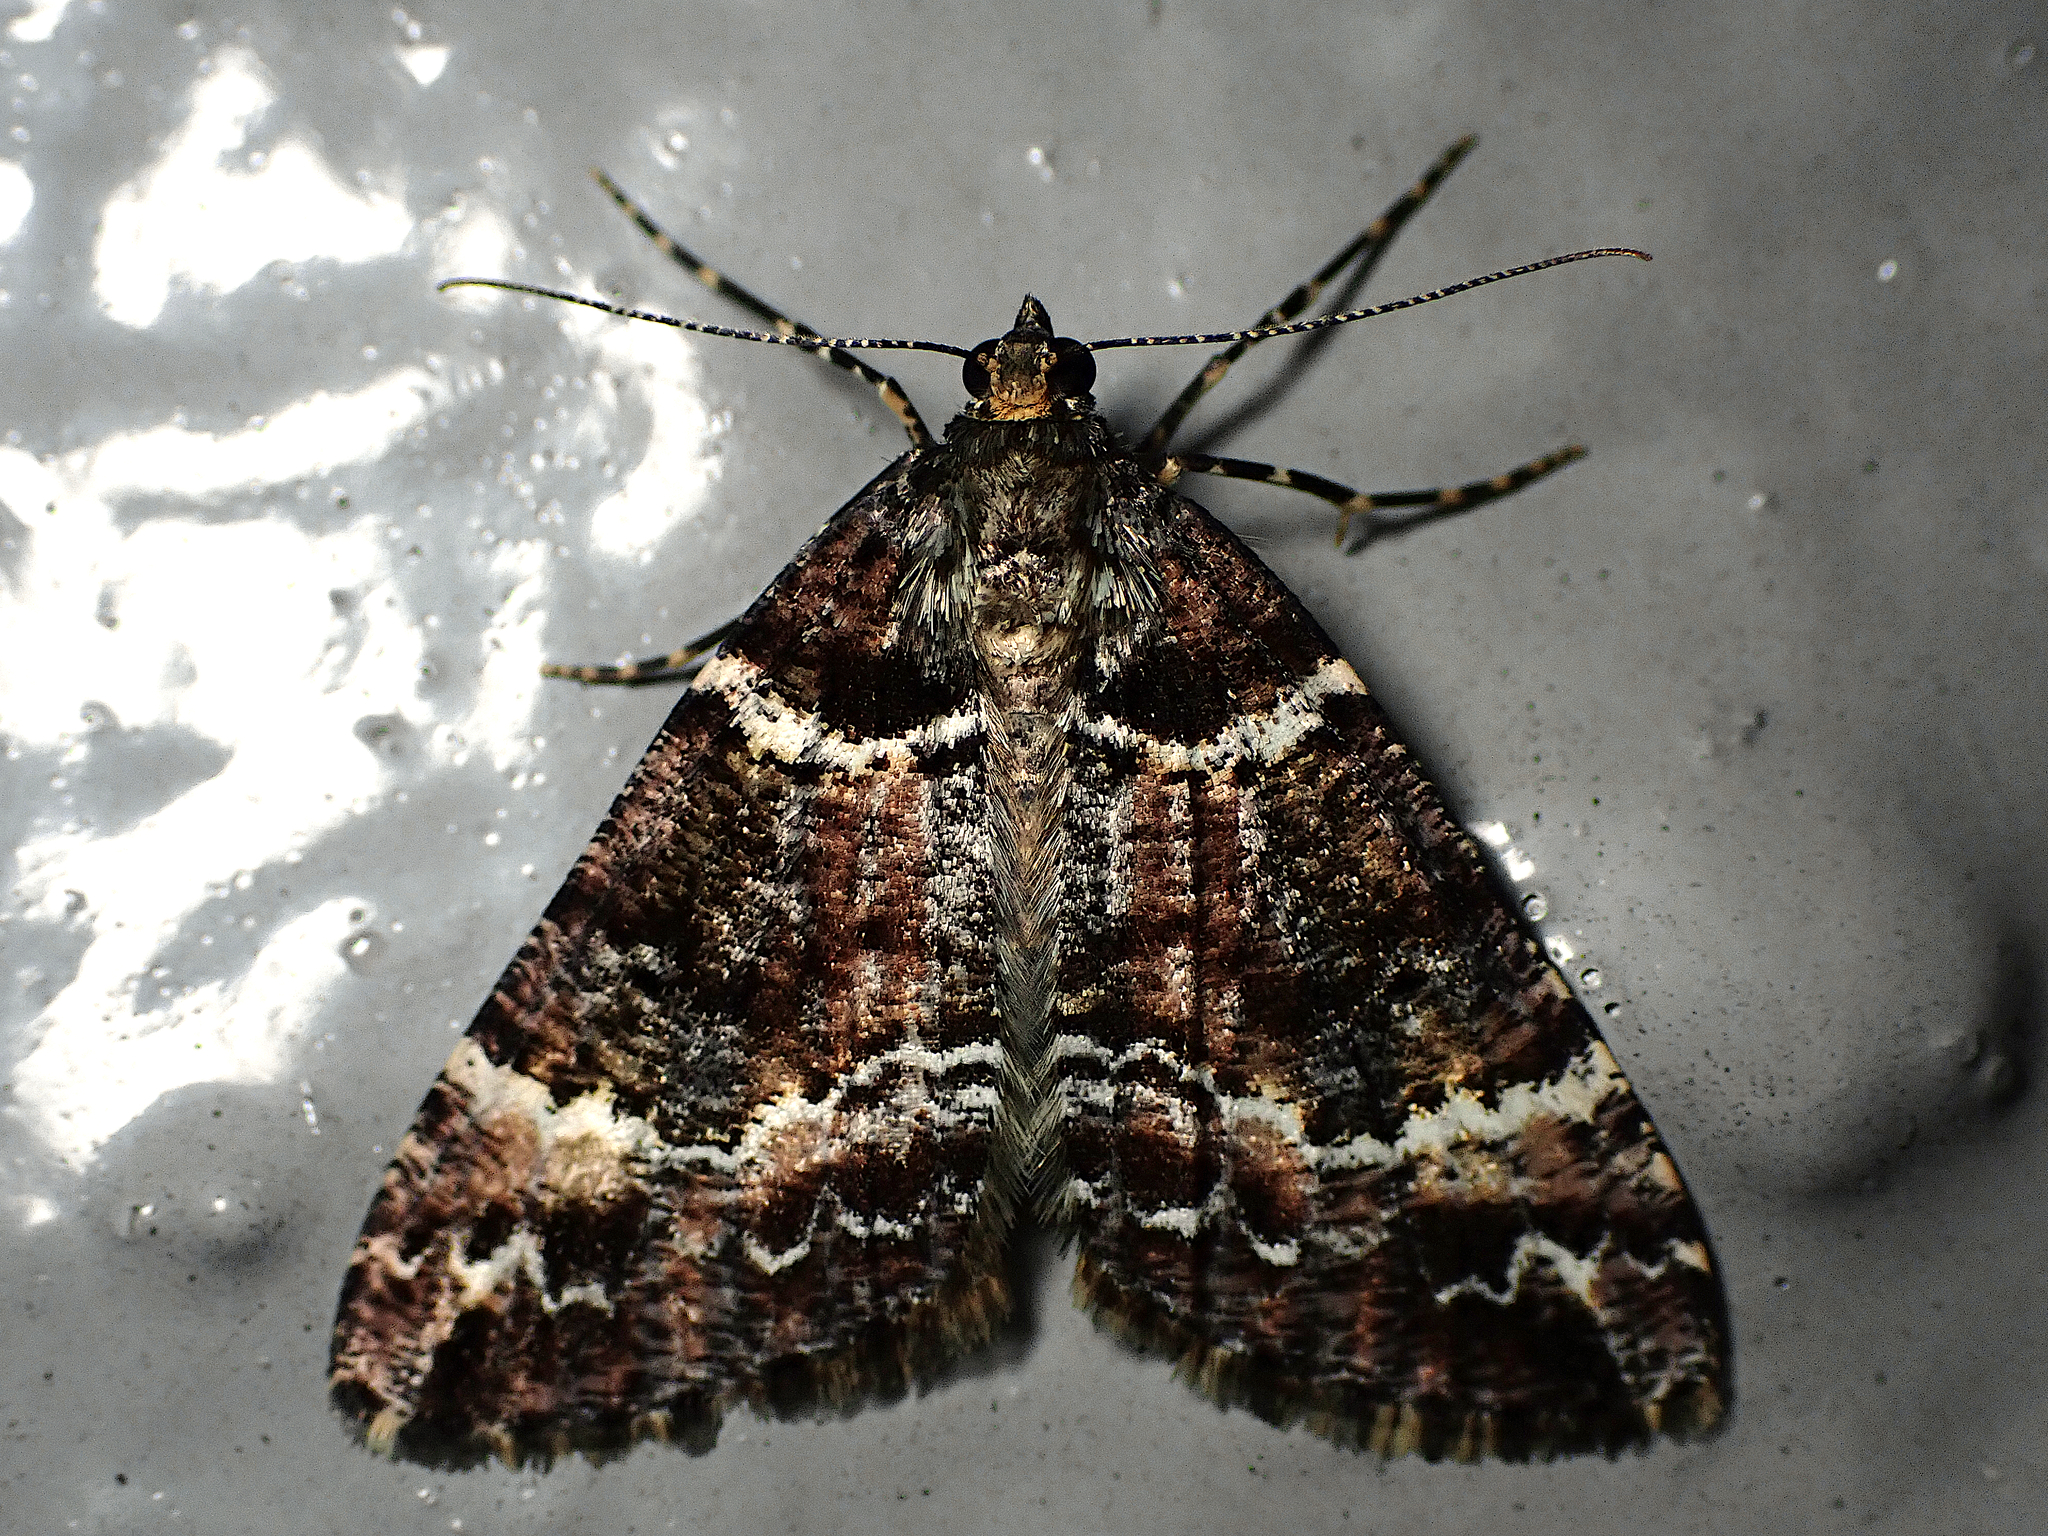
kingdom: Animalia
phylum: Arthropoda
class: Insecta
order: Lepidoptera
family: Geometridae
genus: Pseudocoremia
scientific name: Pseudocoremia productata
